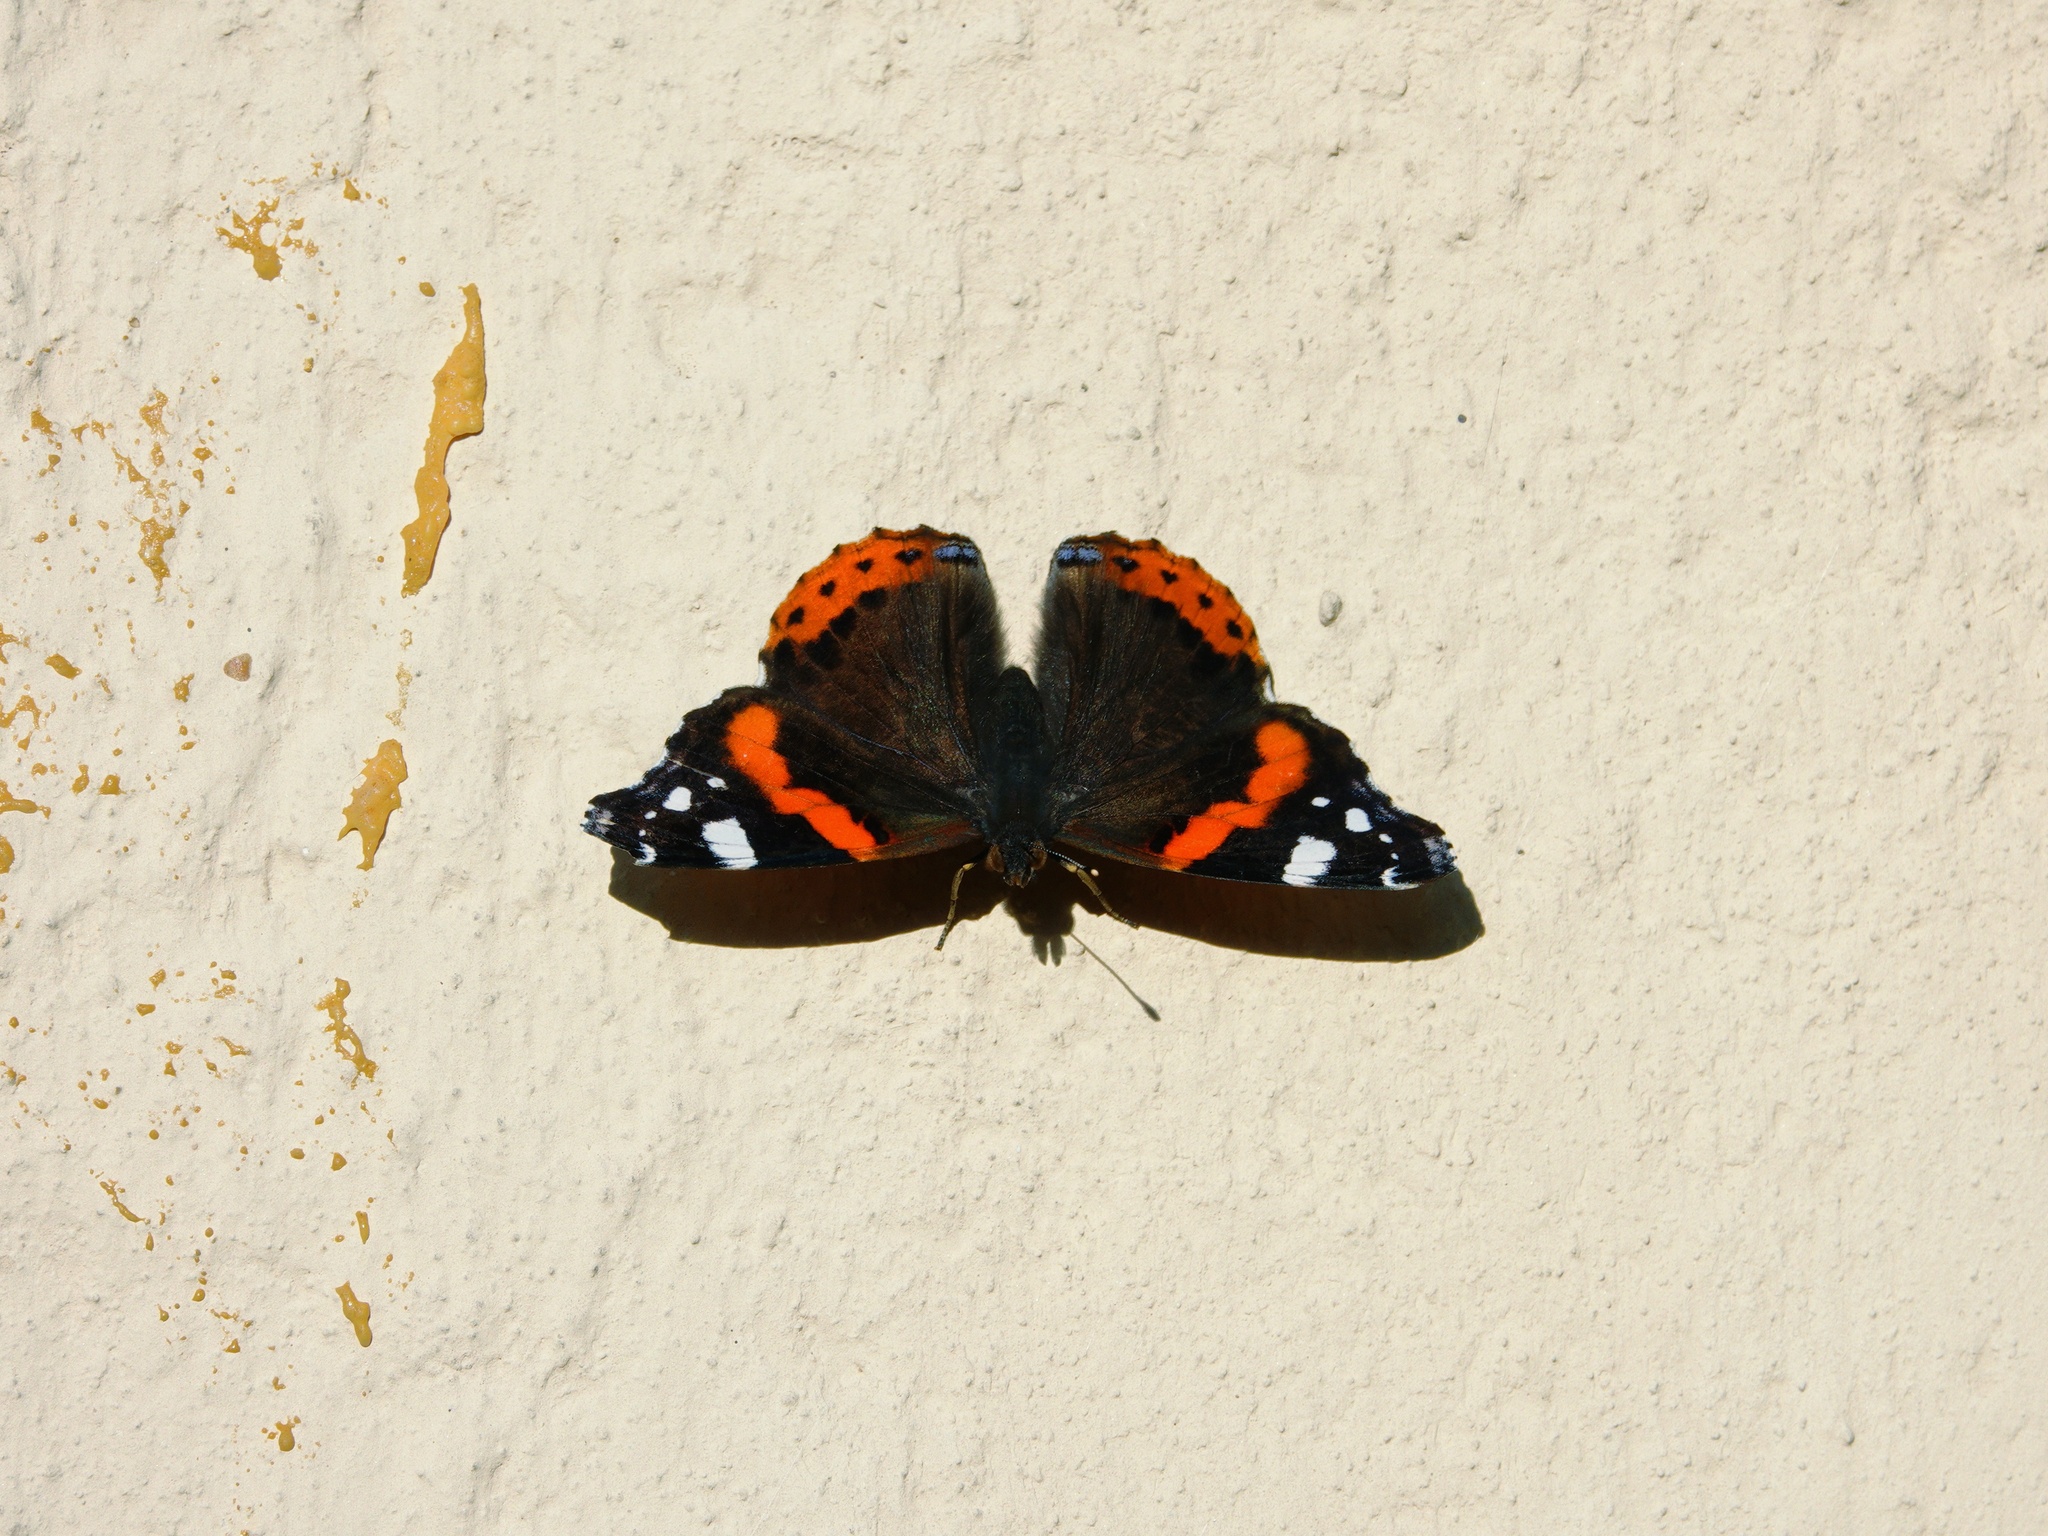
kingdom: Animalia
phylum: Arthropoda
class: Insecta
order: Lepidoptera
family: Nymphalidae
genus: Vanessa
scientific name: Vanessa atalanta
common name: Red admiral
